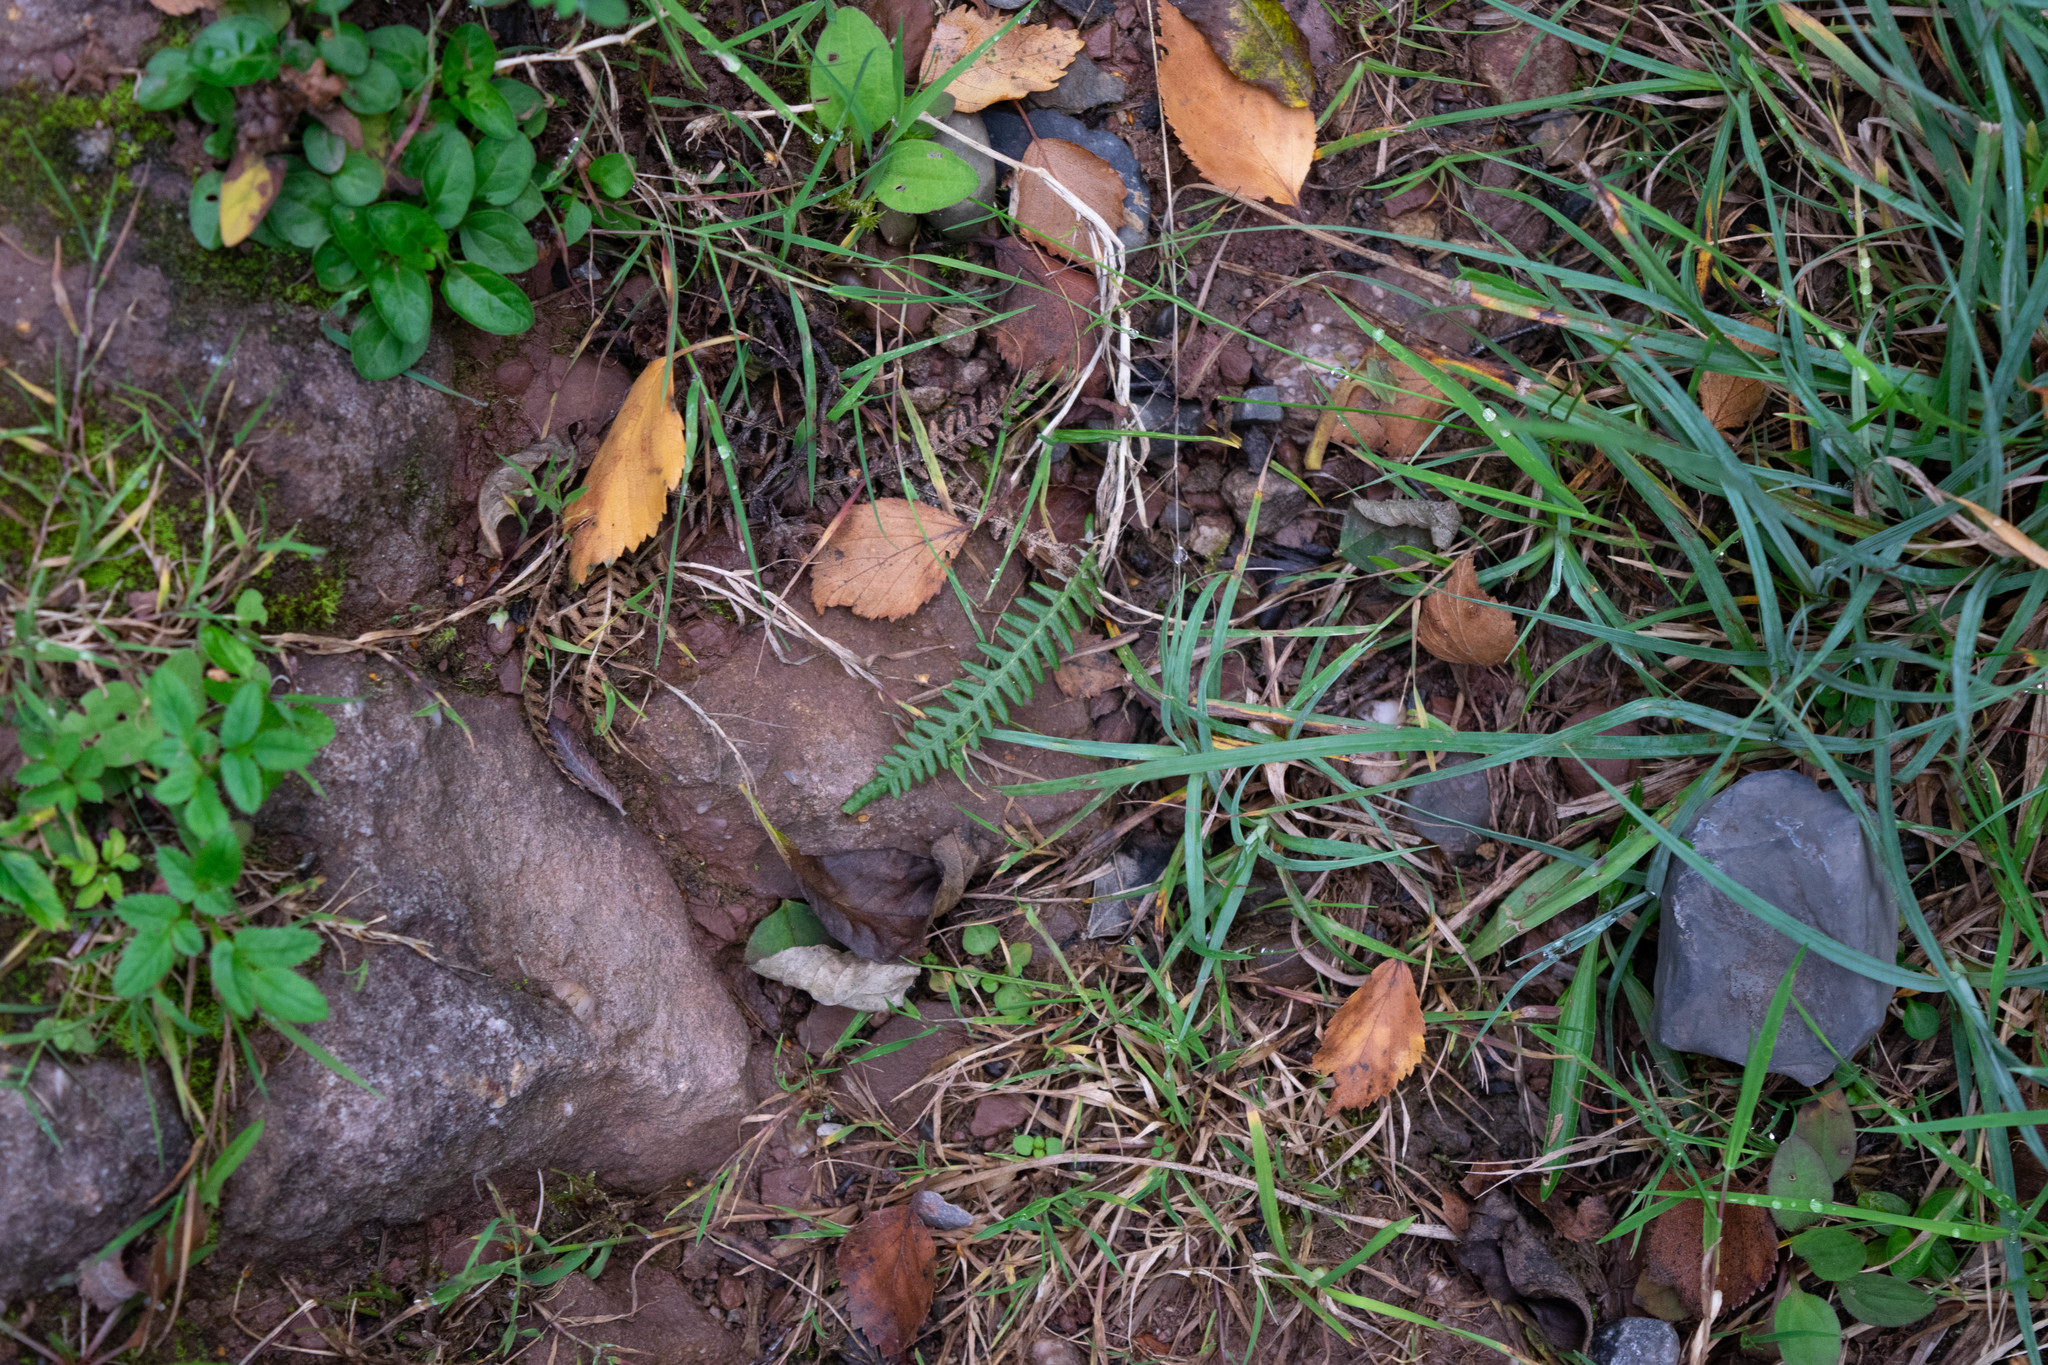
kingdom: Plantae
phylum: Tracheophyta
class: Polypodiopsida
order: Polypodiales
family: Blechnaceae
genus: Struthiopteris
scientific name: Struthiopteris spicant
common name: Deer fern
